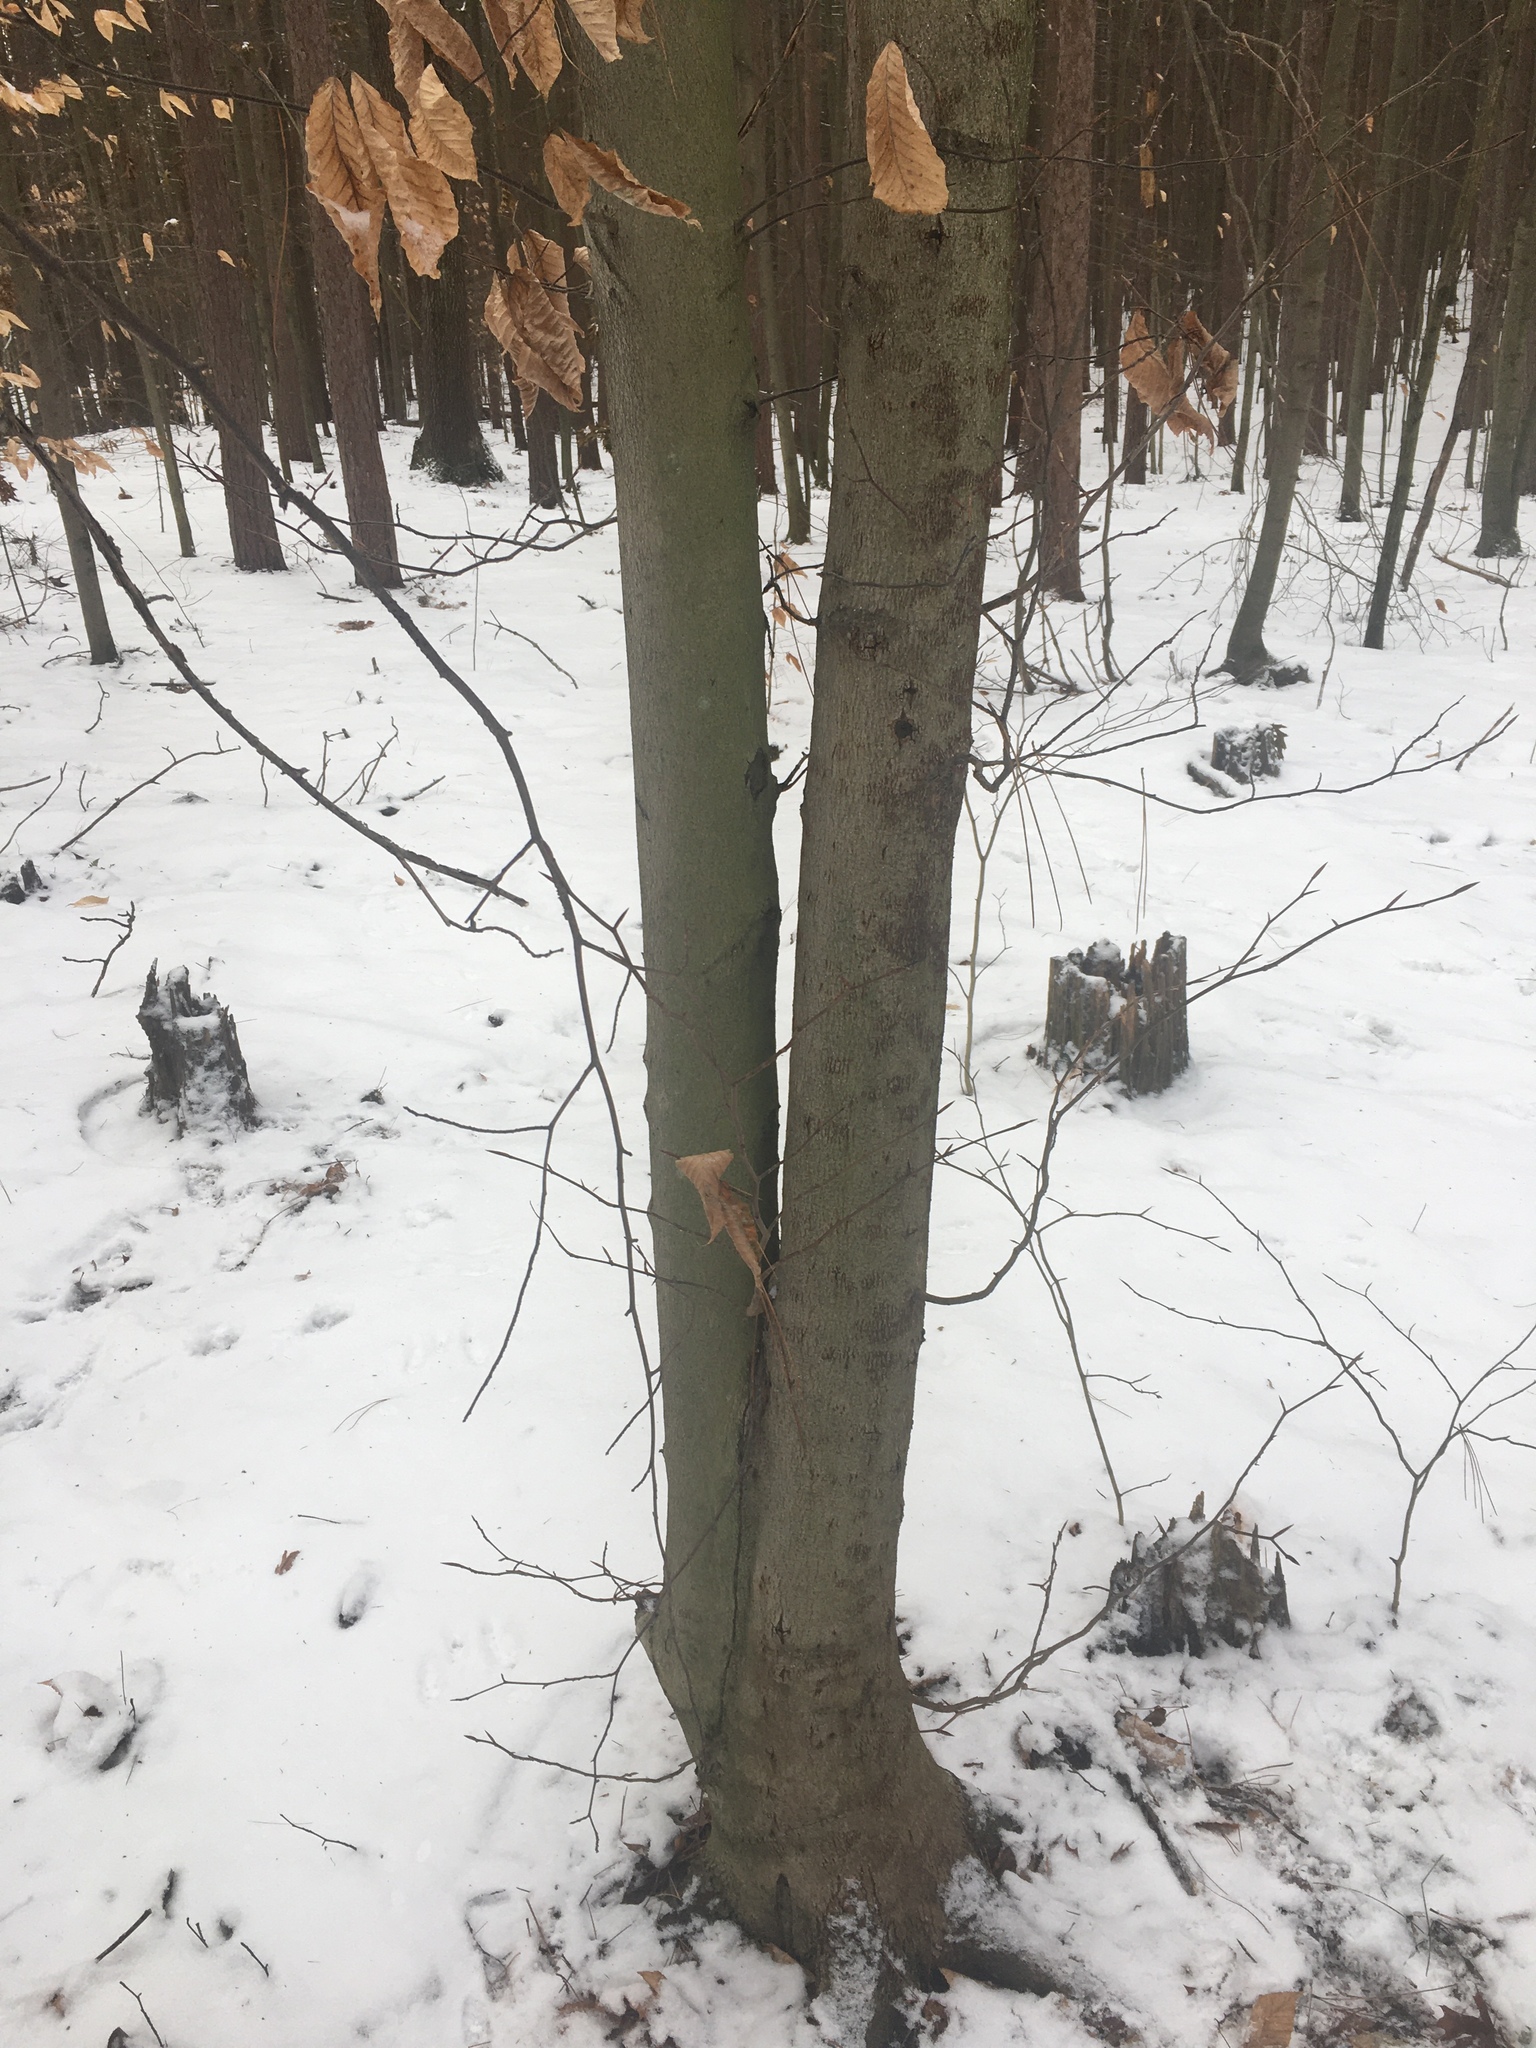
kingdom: Plantae
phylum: Tracheophyta
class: Magnoliopsida
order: Fagales
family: Fagaceae
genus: Fagus
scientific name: Fagus grandifolia
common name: American beech
